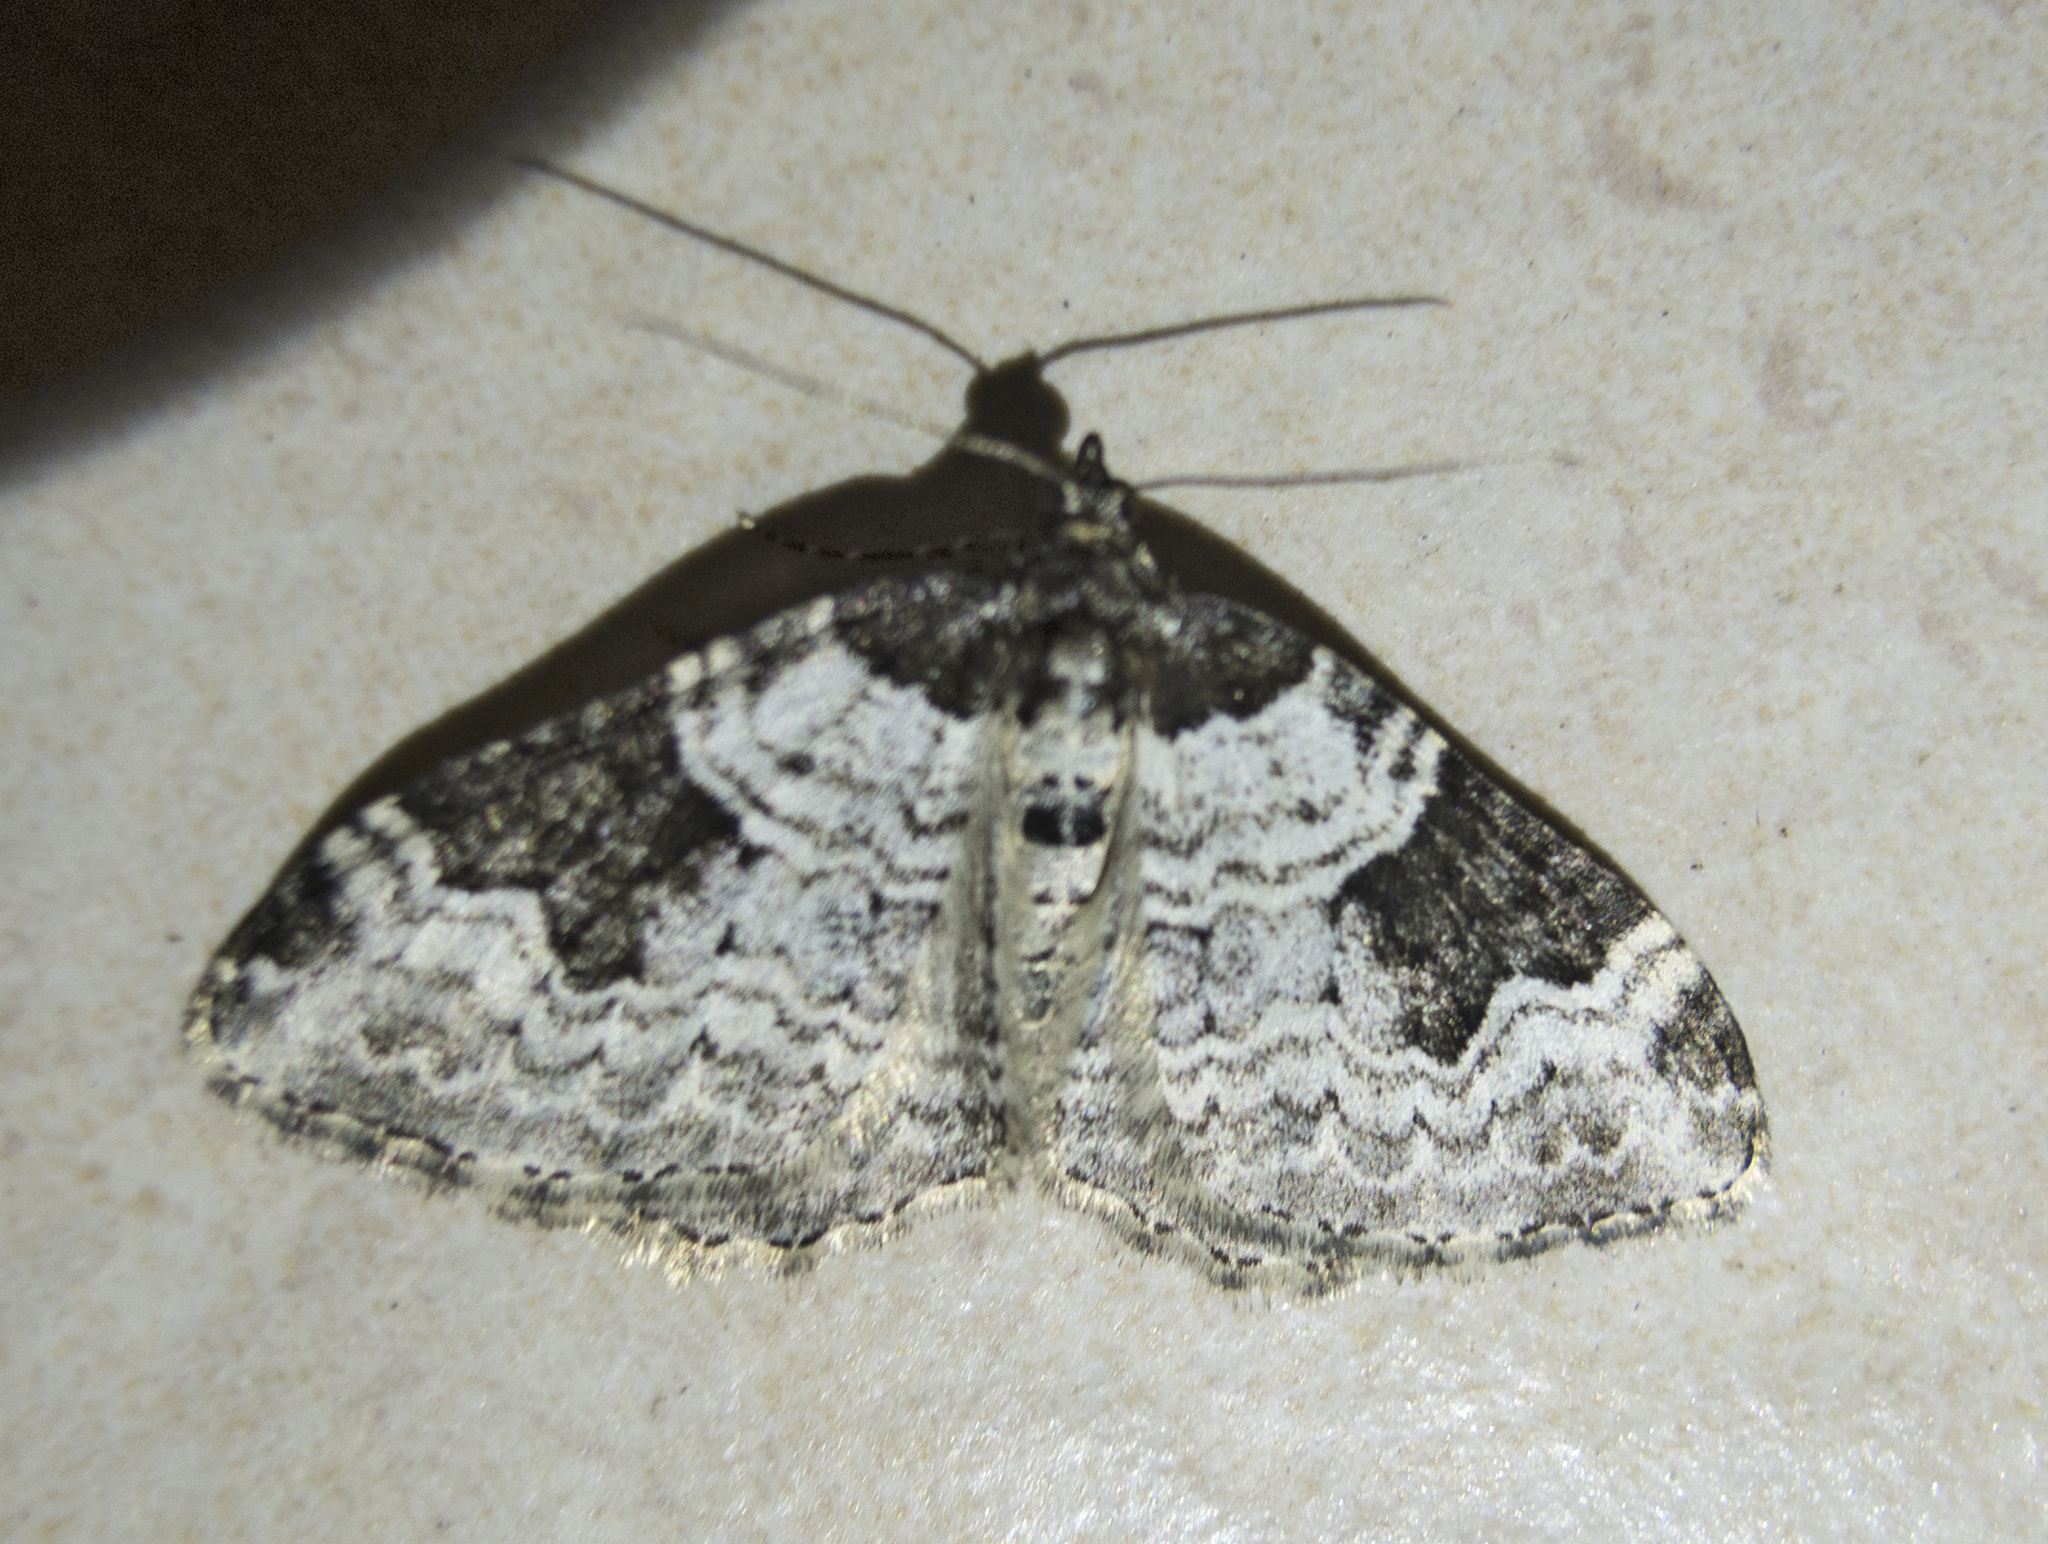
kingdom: Animalia
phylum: Arthropoda
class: Insecta
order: Lepidoptera
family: Geometridae
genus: Xanthorhoe
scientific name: Xanthorhoe fluctuata
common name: Garden carpet
